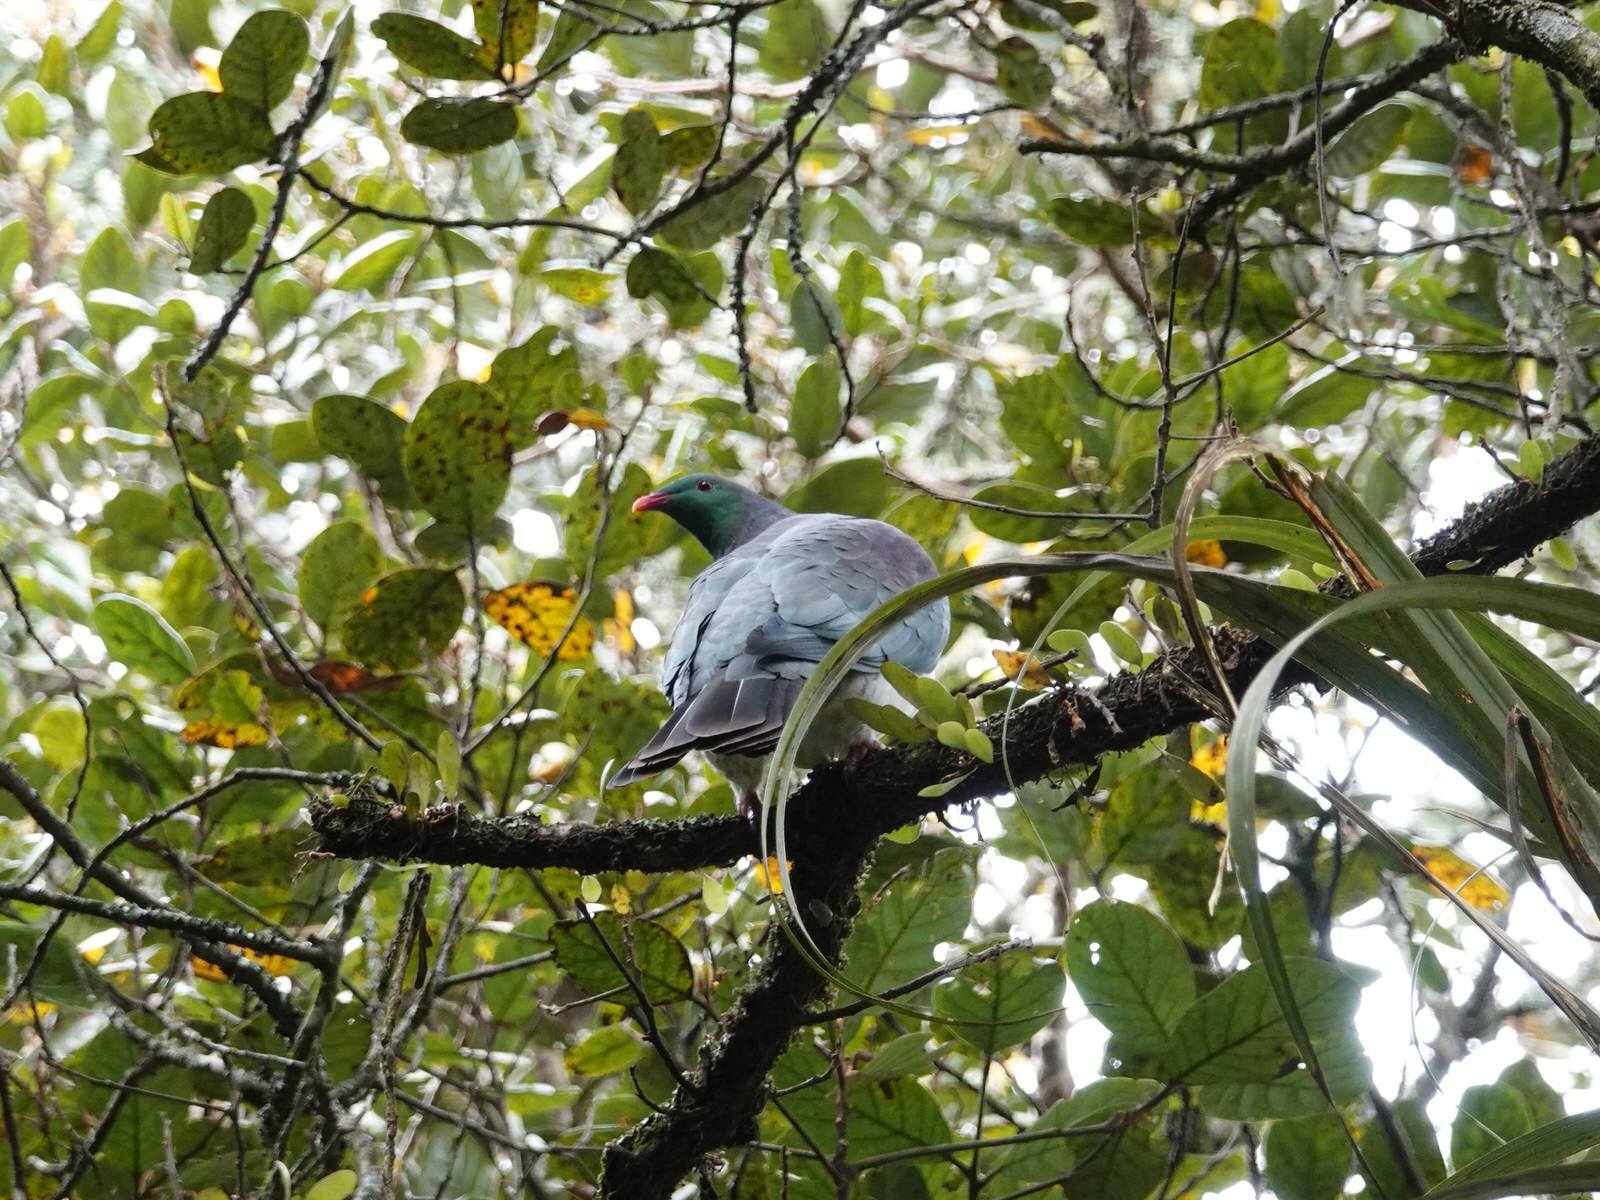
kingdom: Animalia
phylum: Chordata
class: Aves
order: Columbiformes
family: Columbidae
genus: Hemiphaga
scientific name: Hemiphaga novaeseelandiae
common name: New zealand pigeon
